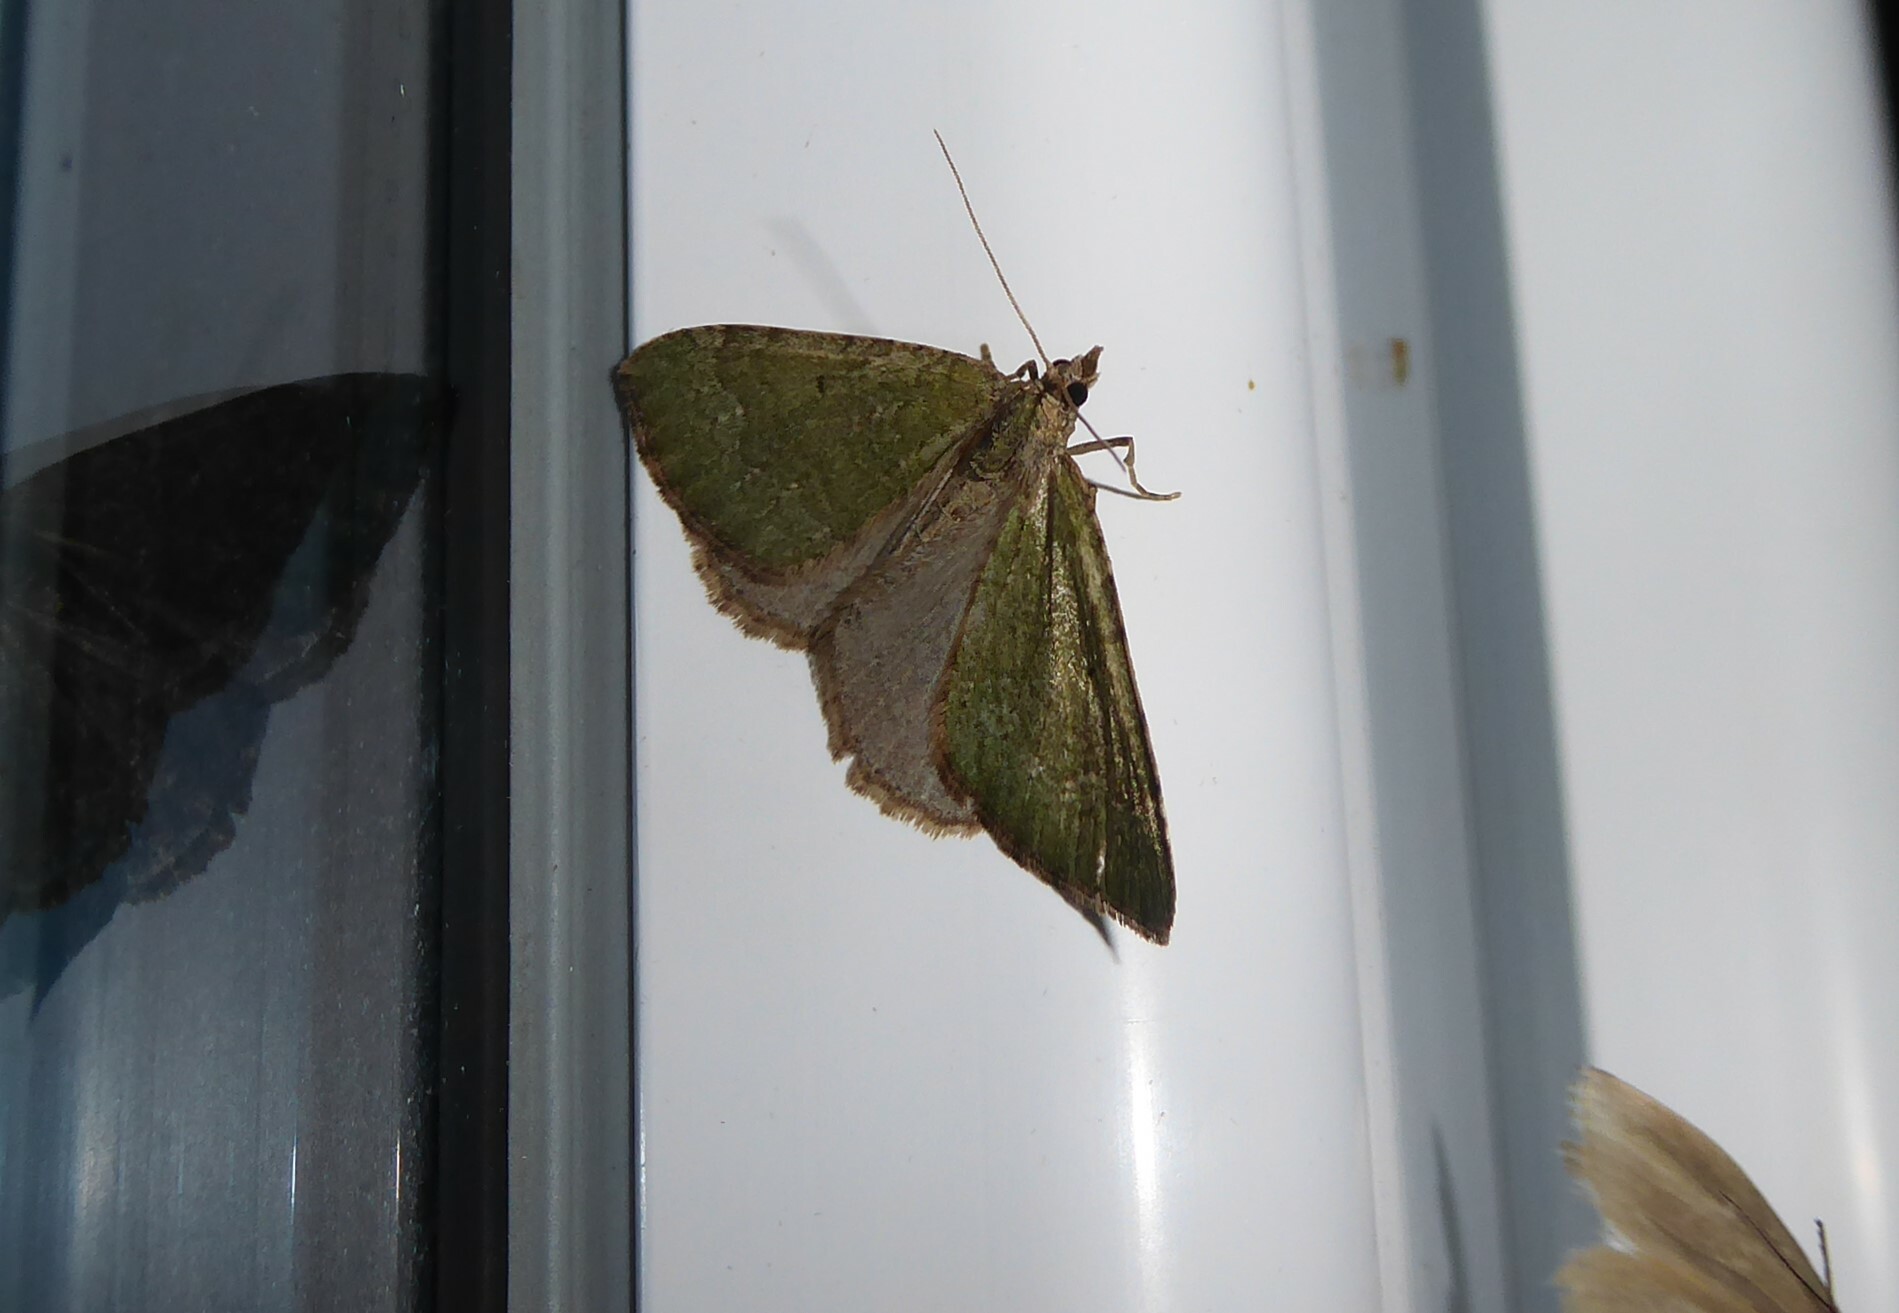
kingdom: Animalia
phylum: Arthropoda
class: Insecta
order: Lepidoptera
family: Geometridae
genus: Epyaxa
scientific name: Epyaxa rosearia
